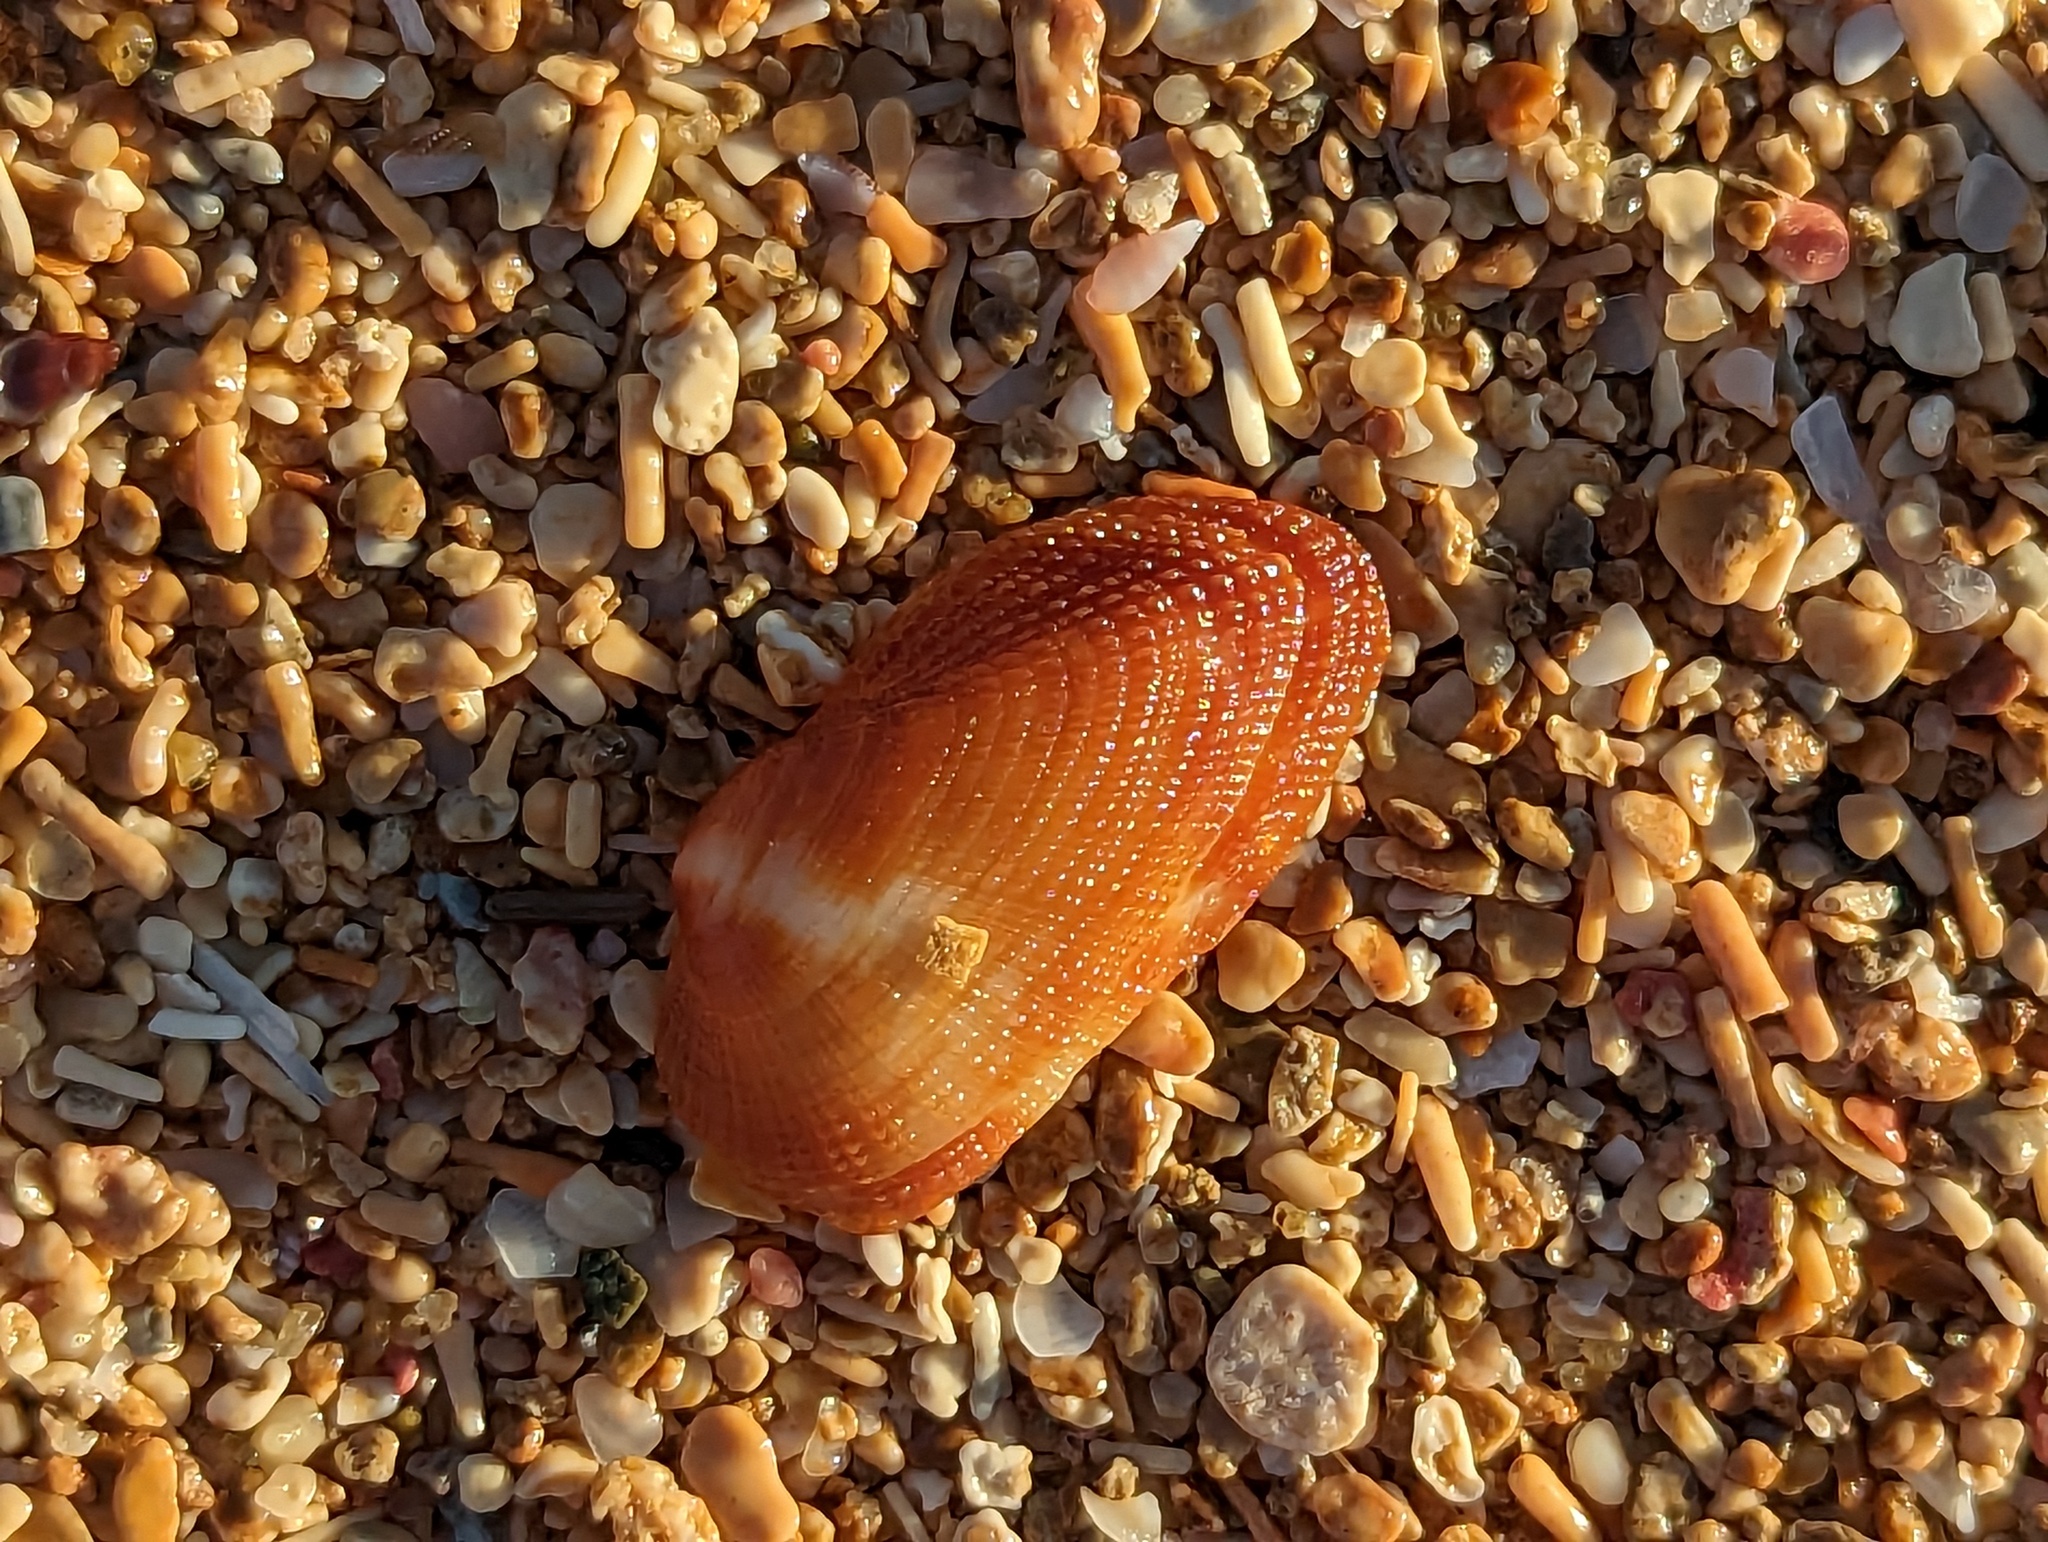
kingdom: Animalia
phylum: Mollusca
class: Bivalvia
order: Arcida
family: Arcidae
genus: Barbatia
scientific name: Barbatia domingensis
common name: White miniature ark
